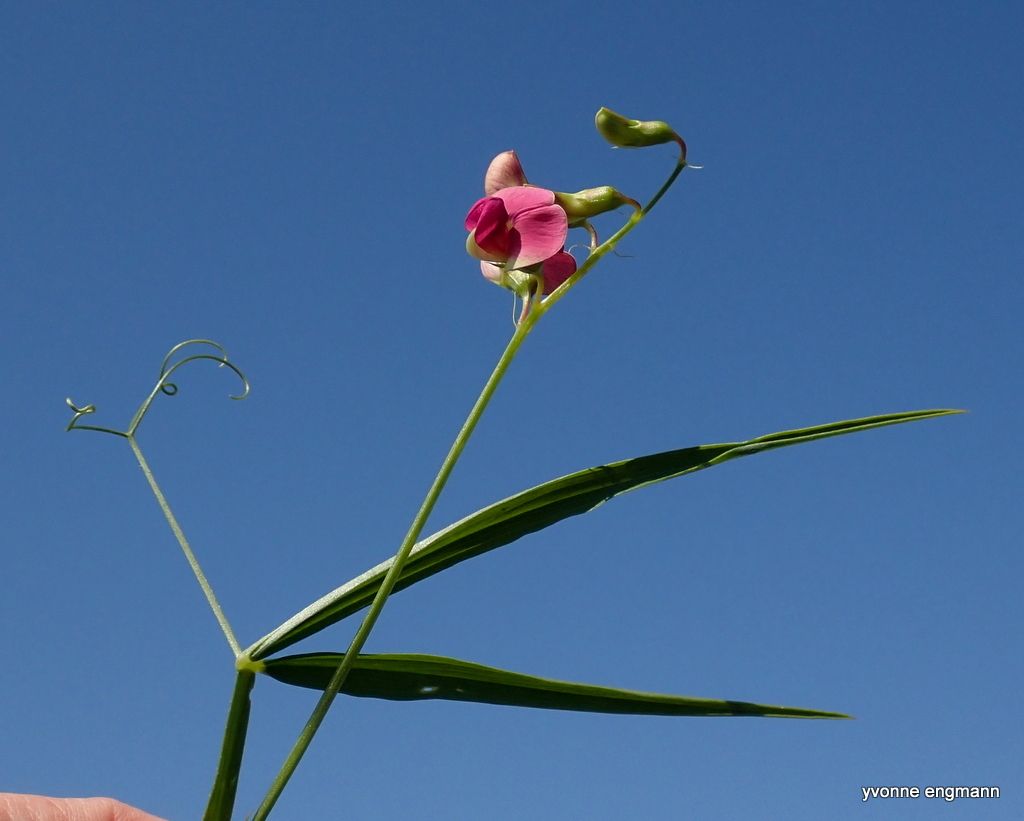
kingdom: Plantae
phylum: Tracheophyta
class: Magnoliopsida
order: Fabales
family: Fabaceae
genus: Lathyrus
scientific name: Lathyrus sylvestris
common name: Flat pea
